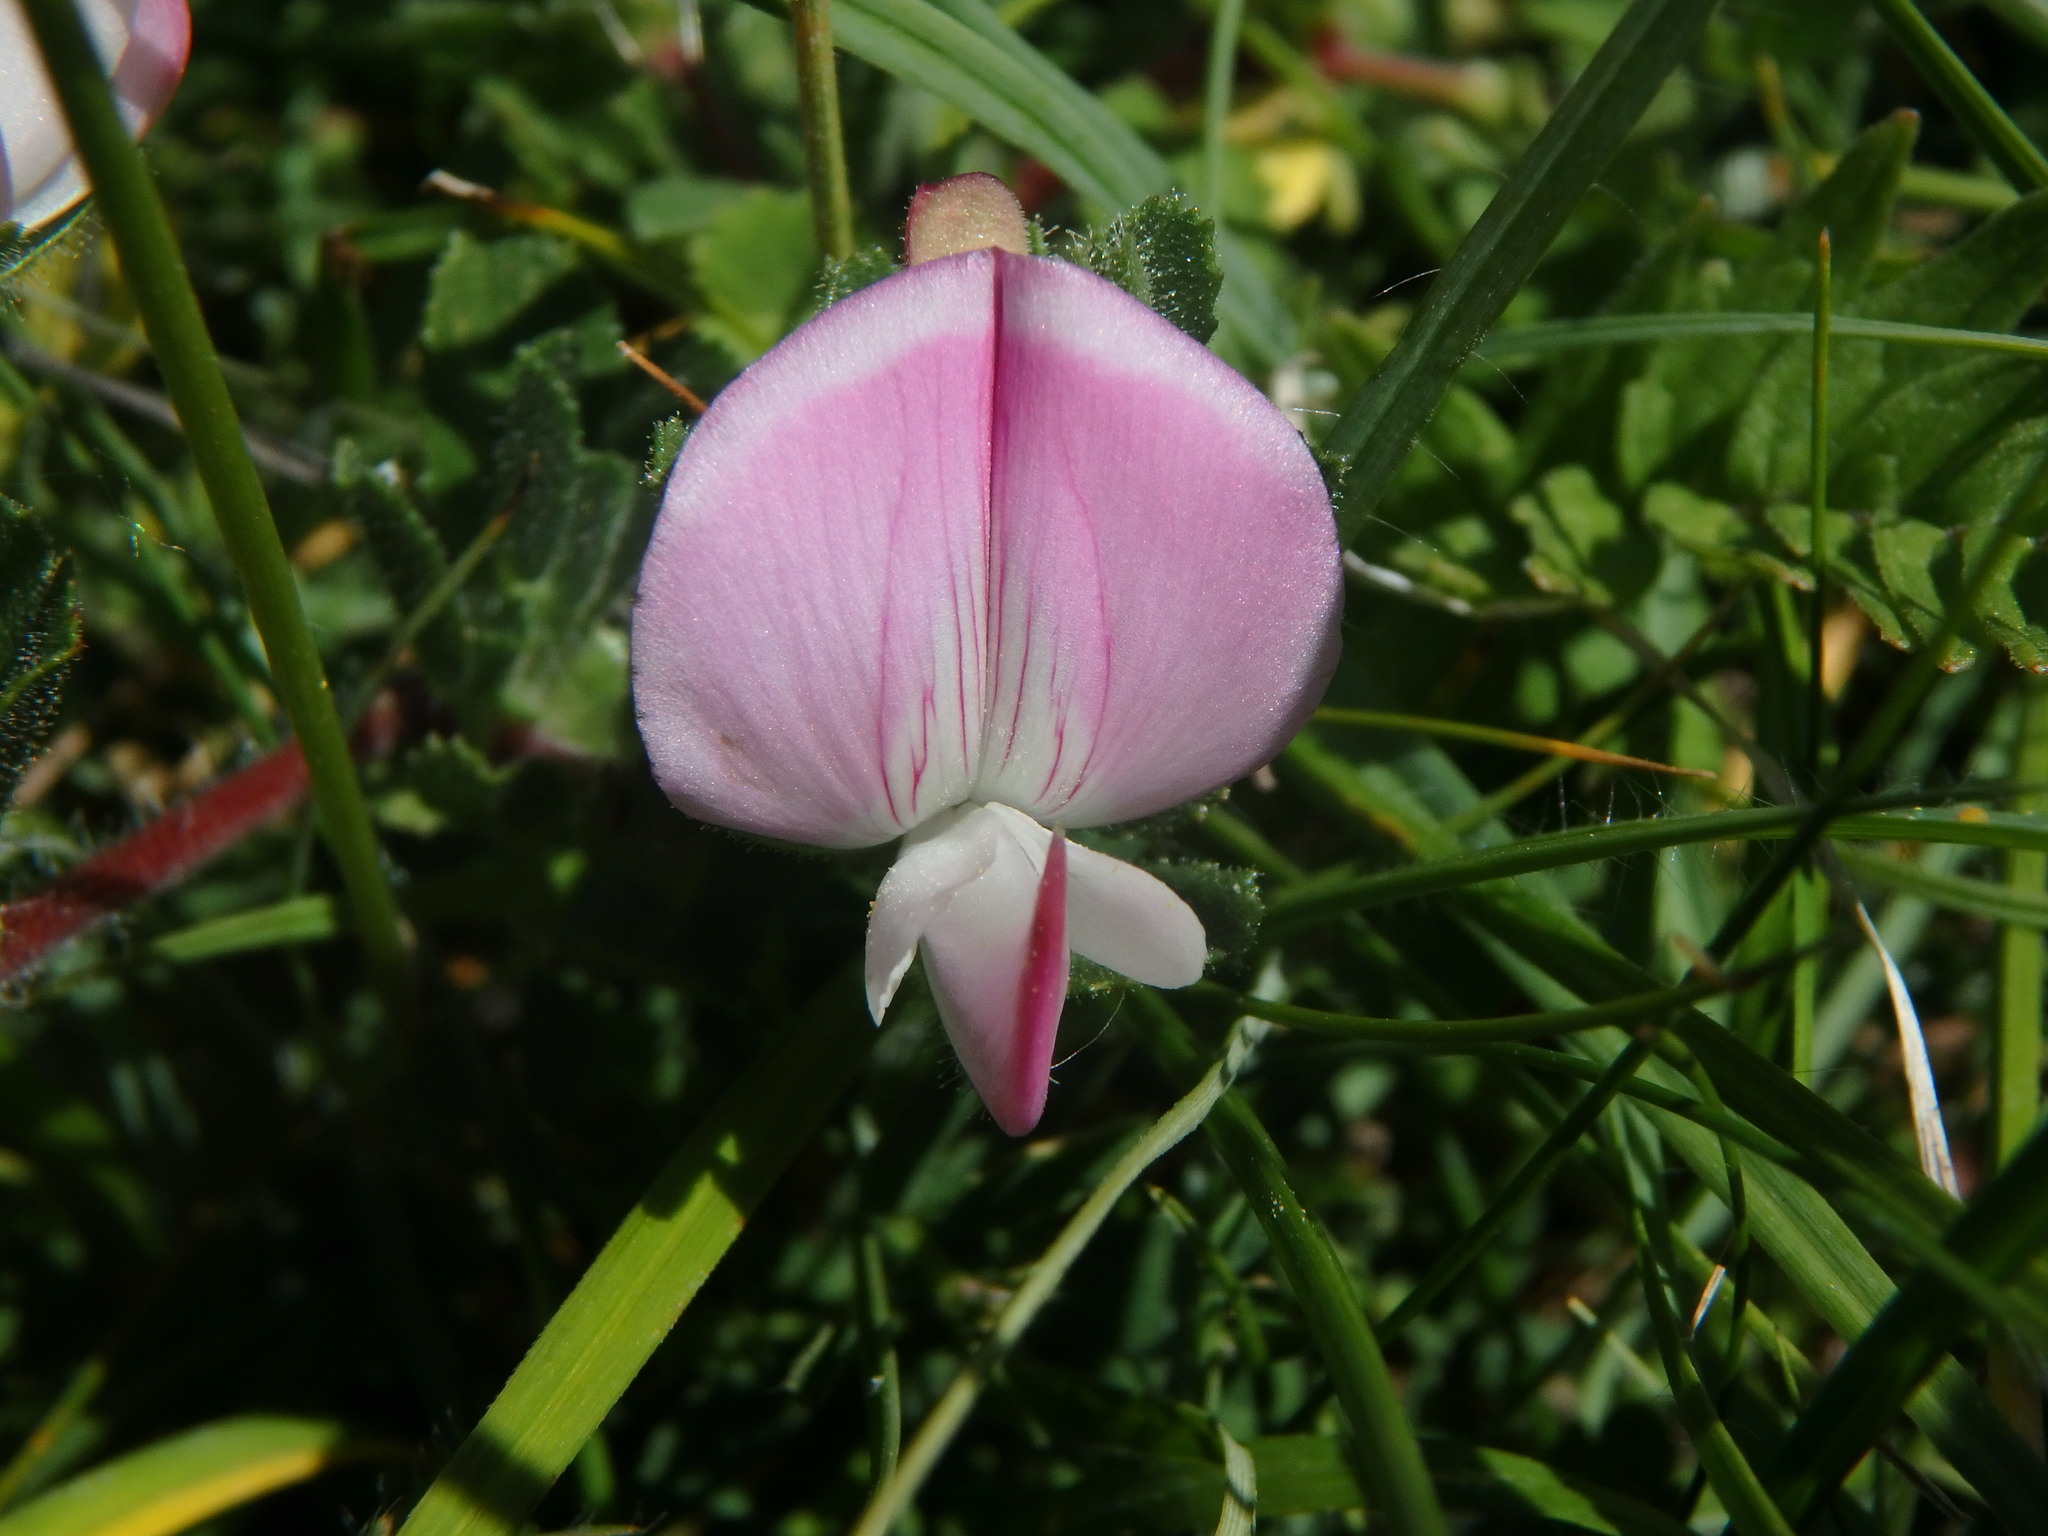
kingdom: Plantae
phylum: Tracheophyta
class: Magnoliopsida
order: Fabales
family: Fabaceae
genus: Ononis
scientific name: Ononis spinosa
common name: Spiny restharrow
